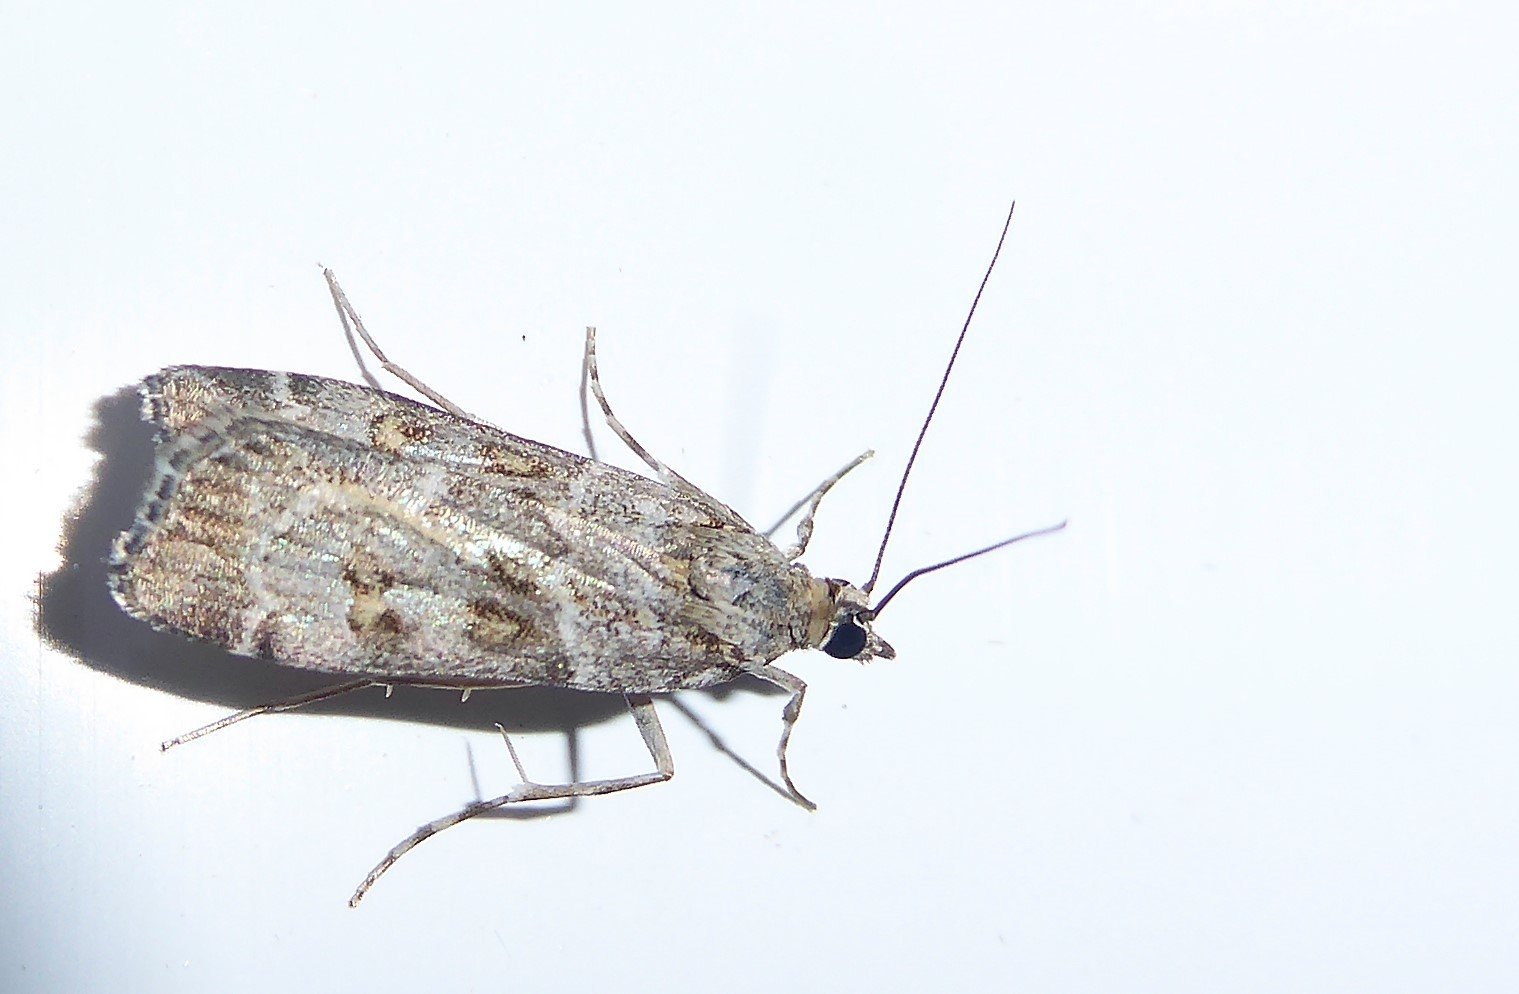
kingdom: Animalia
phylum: Arthropoda
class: Insecta
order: Lepidoptera
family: Crambidae
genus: Eudonia
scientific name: Eudonia diphtheralis
